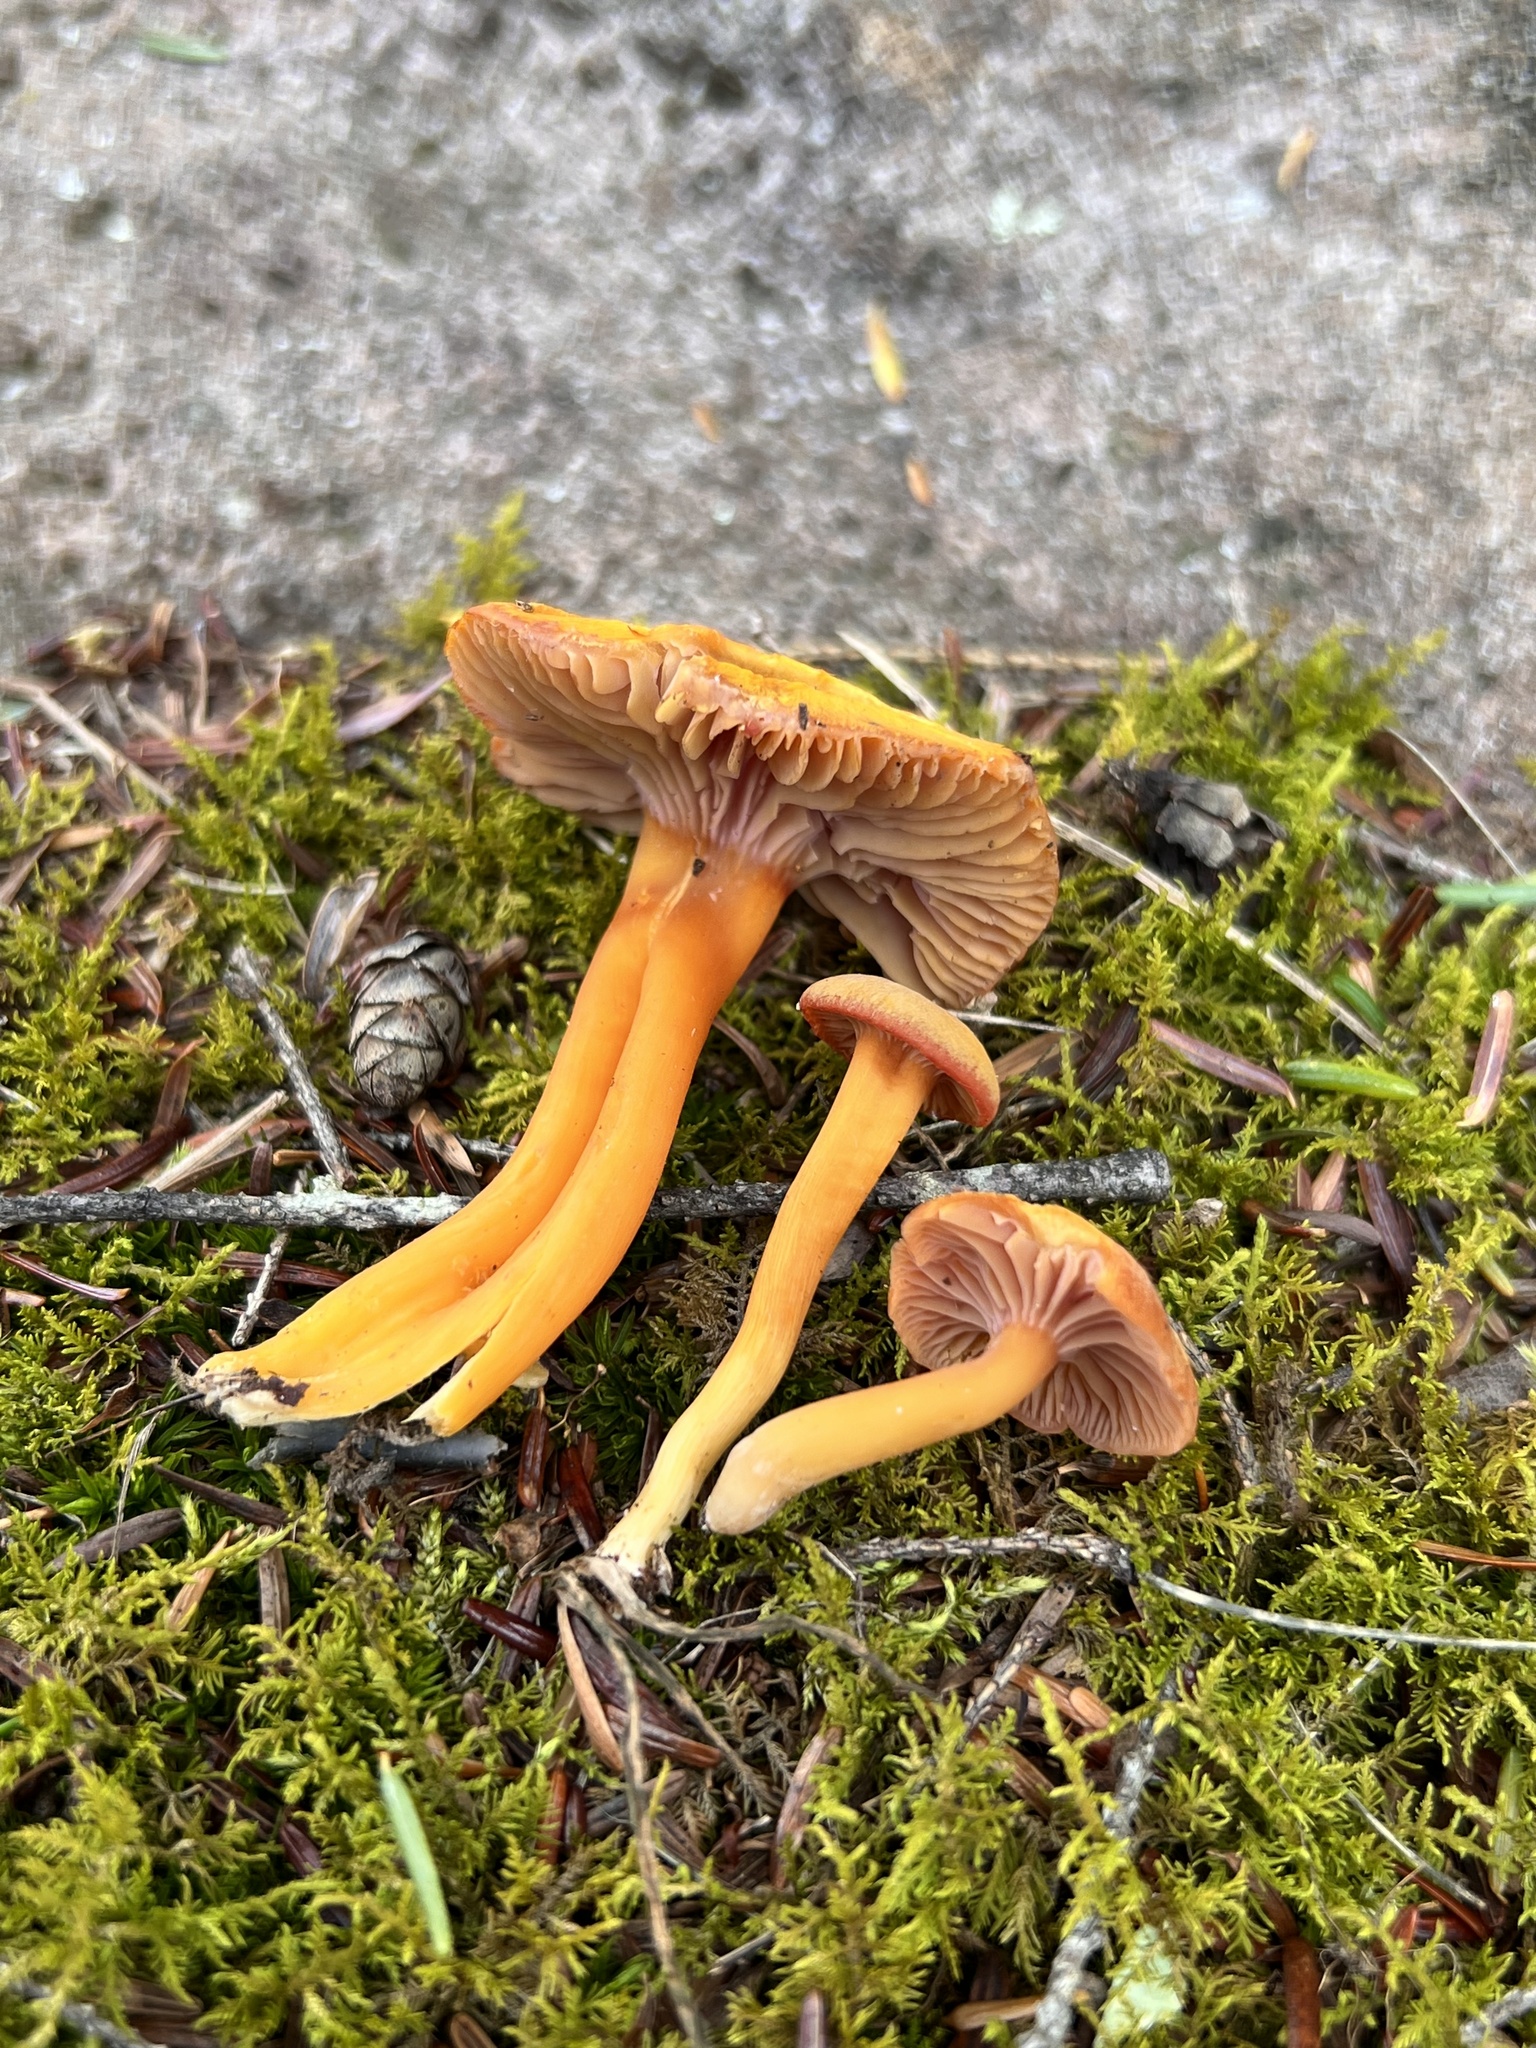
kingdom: Fungi
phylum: Basidiomycota
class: Agaricomycetes
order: Agaricales
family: Hygrophoraceae
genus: Hygrocybe
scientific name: Hygrocybe purpureofolia
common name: Purple-gilled waxy cap
